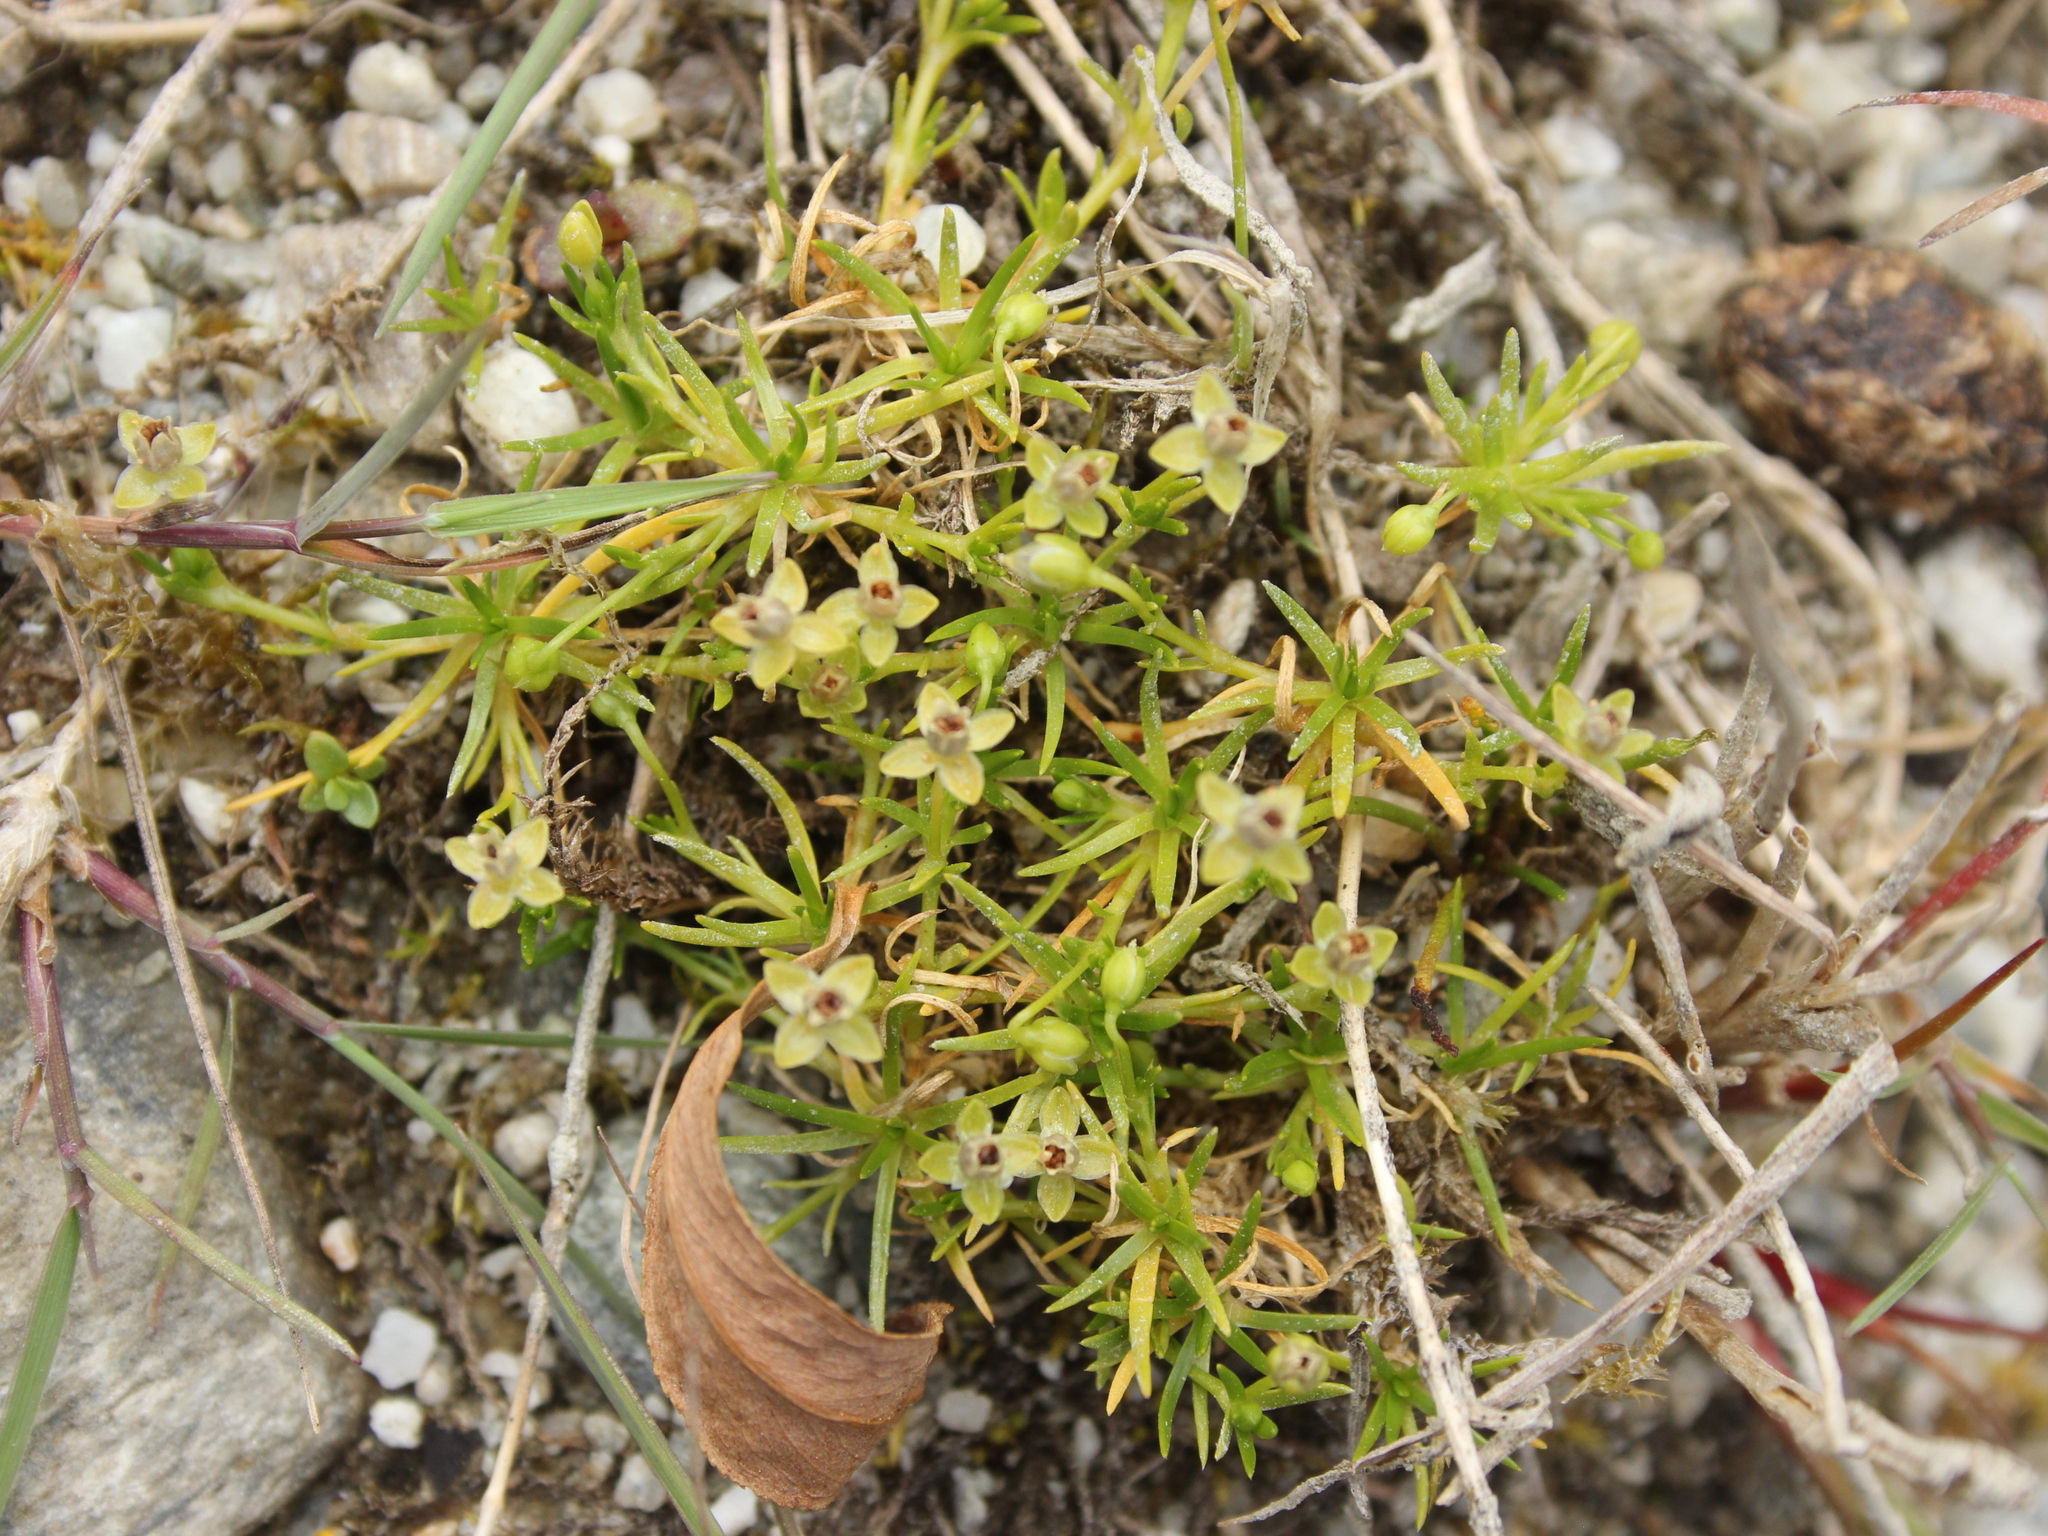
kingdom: Plantae
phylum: Tracheophyta
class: Magnoliopsida
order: Caryophyllales
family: Caryophyllaceae
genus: Sagina
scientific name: Sagina procumbens
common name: Procumbent pearlwort
